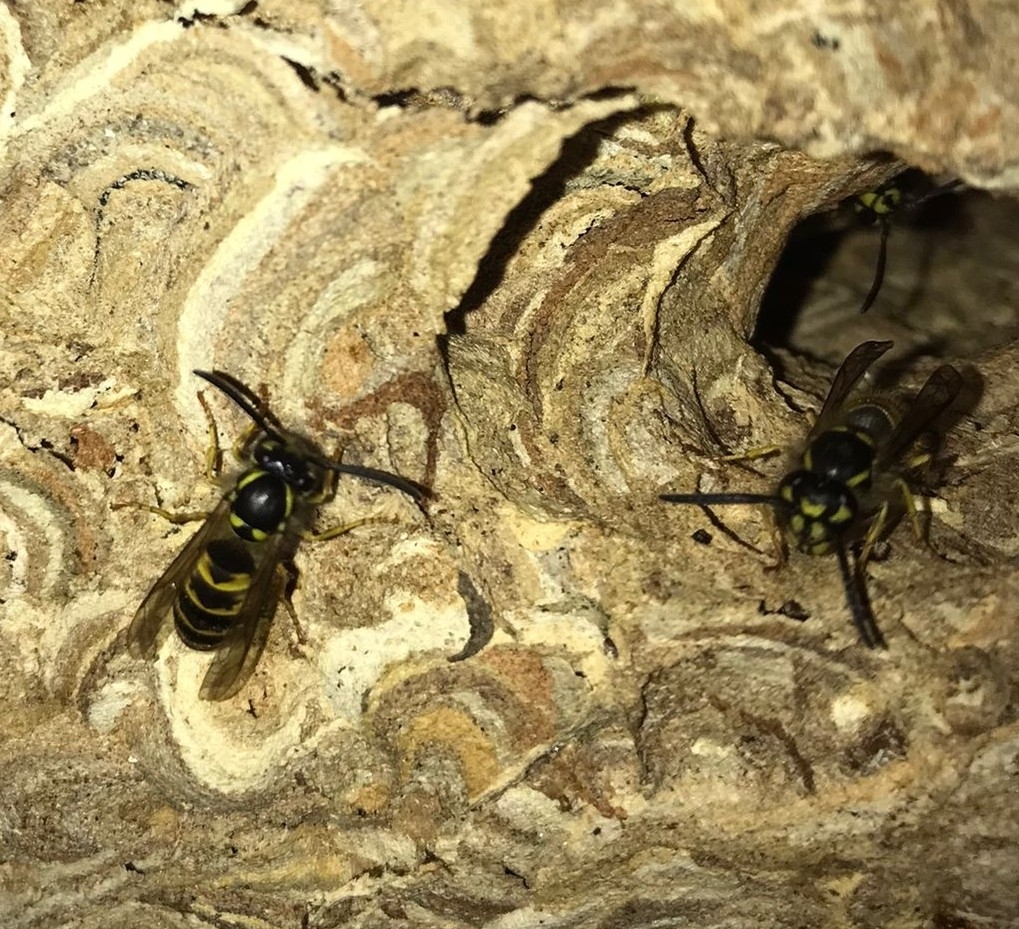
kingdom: Animalia
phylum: Arthropoda
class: Insecta
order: Hymenoptera
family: Vespidae
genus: Vespula
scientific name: Vespula vulgaris
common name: Common wasp
